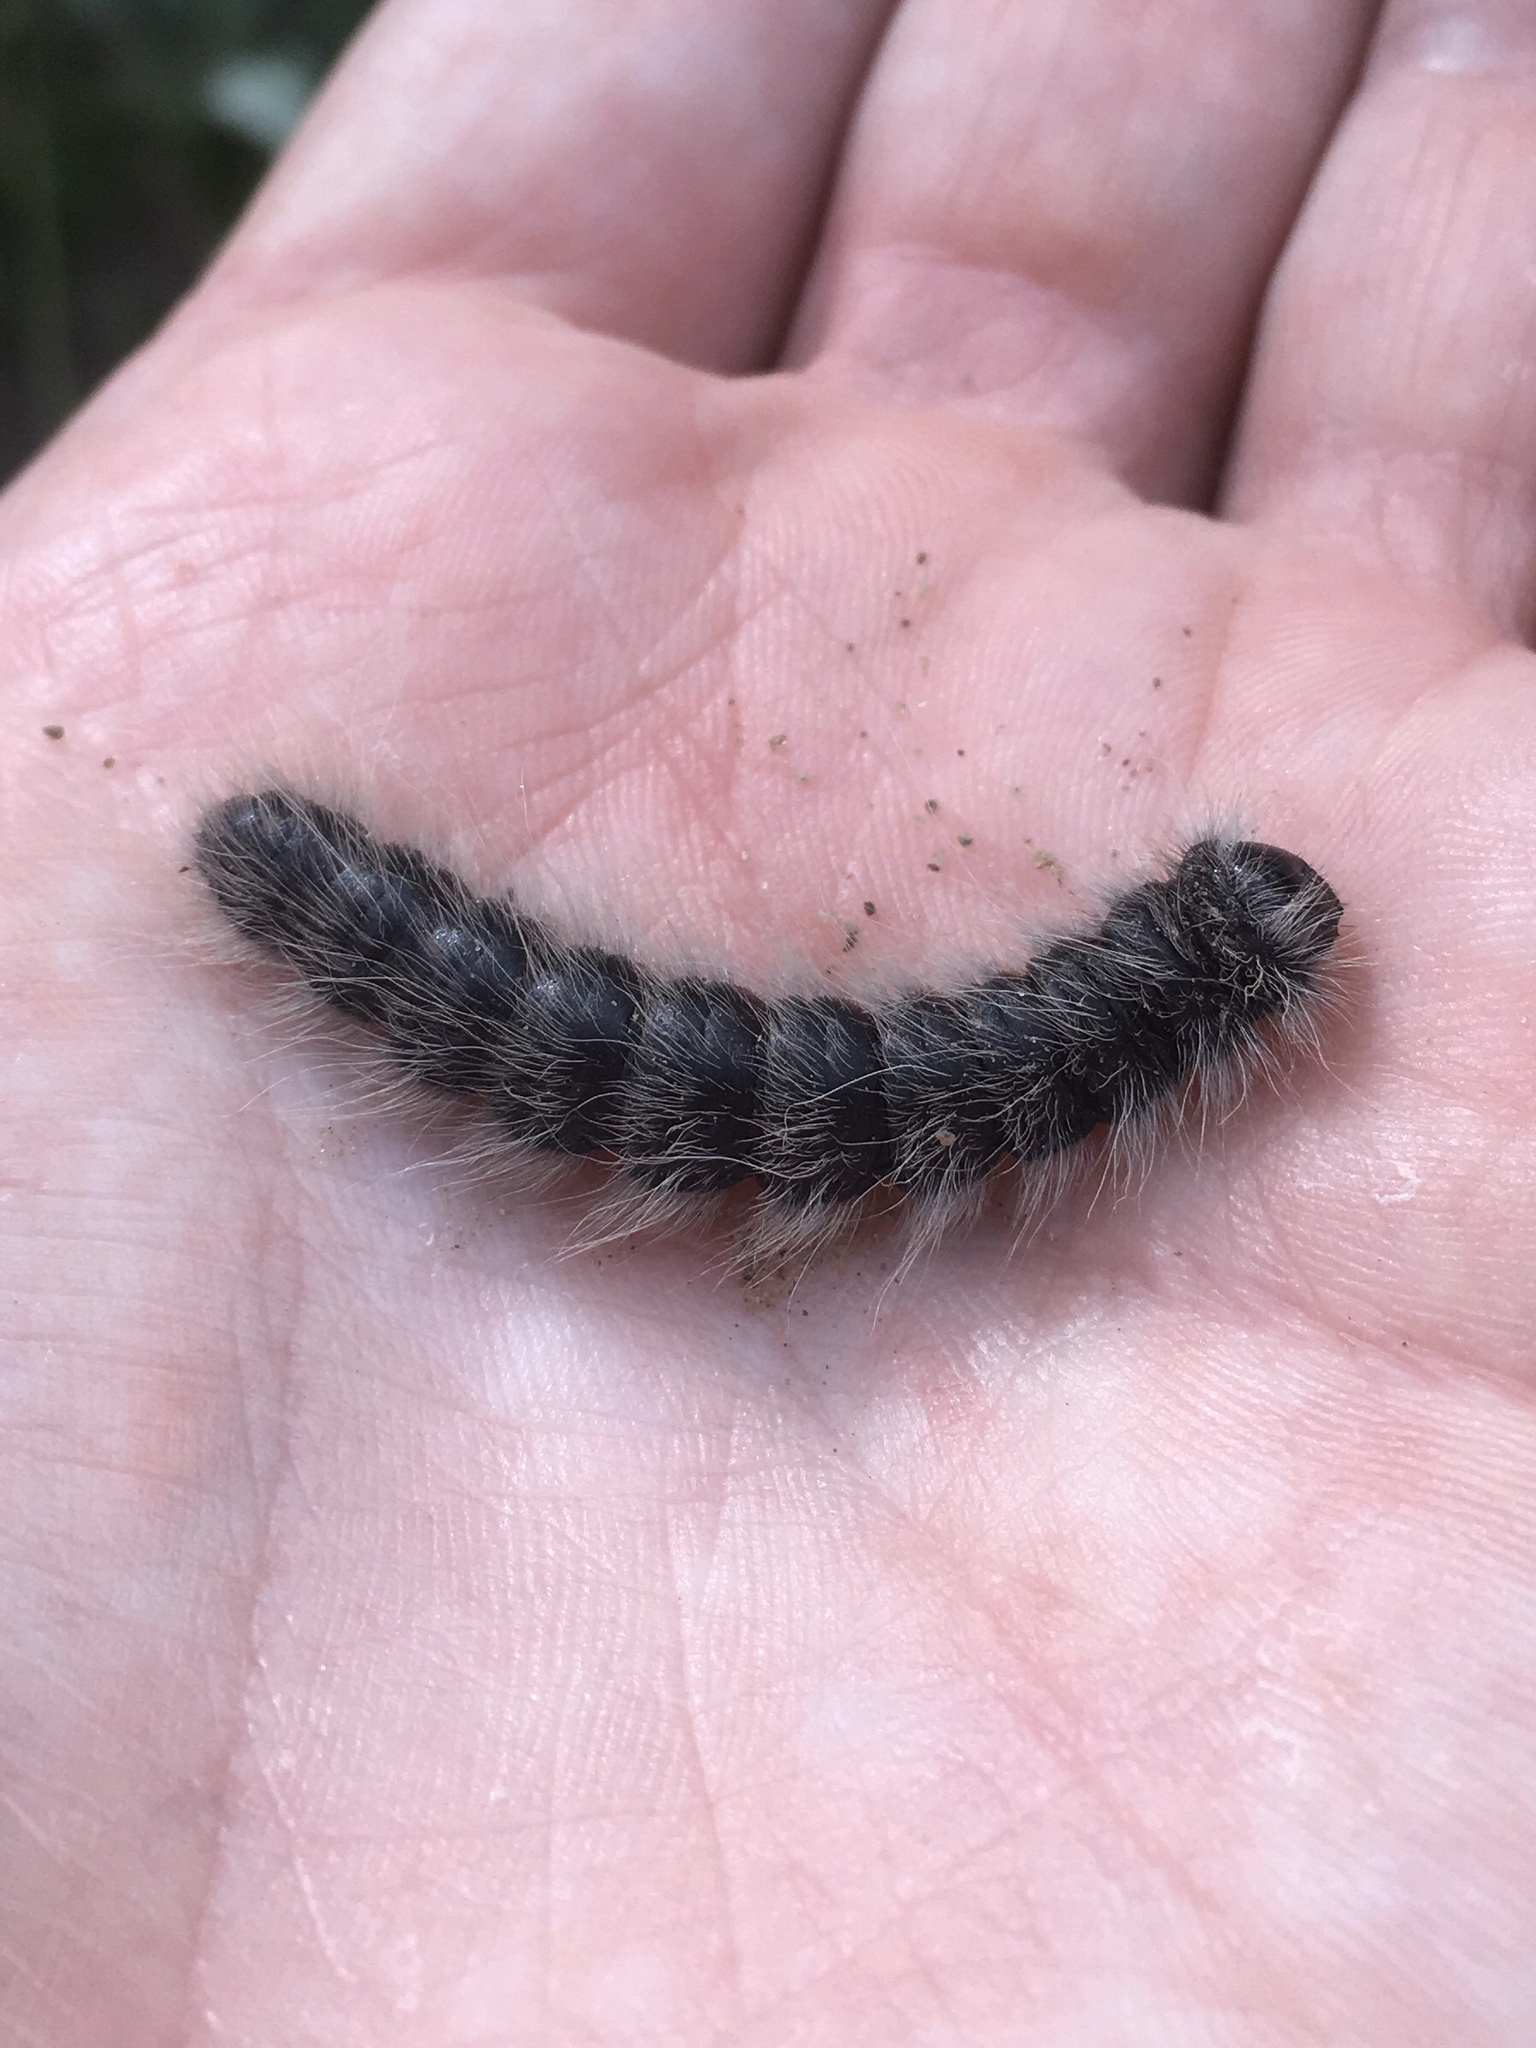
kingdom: Animalia
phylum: Arthropoda
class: Insecta
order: Lepidoptera
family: Notodontidae
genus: Datana
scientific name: Datana integerrima
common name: Walnut caterpillar
